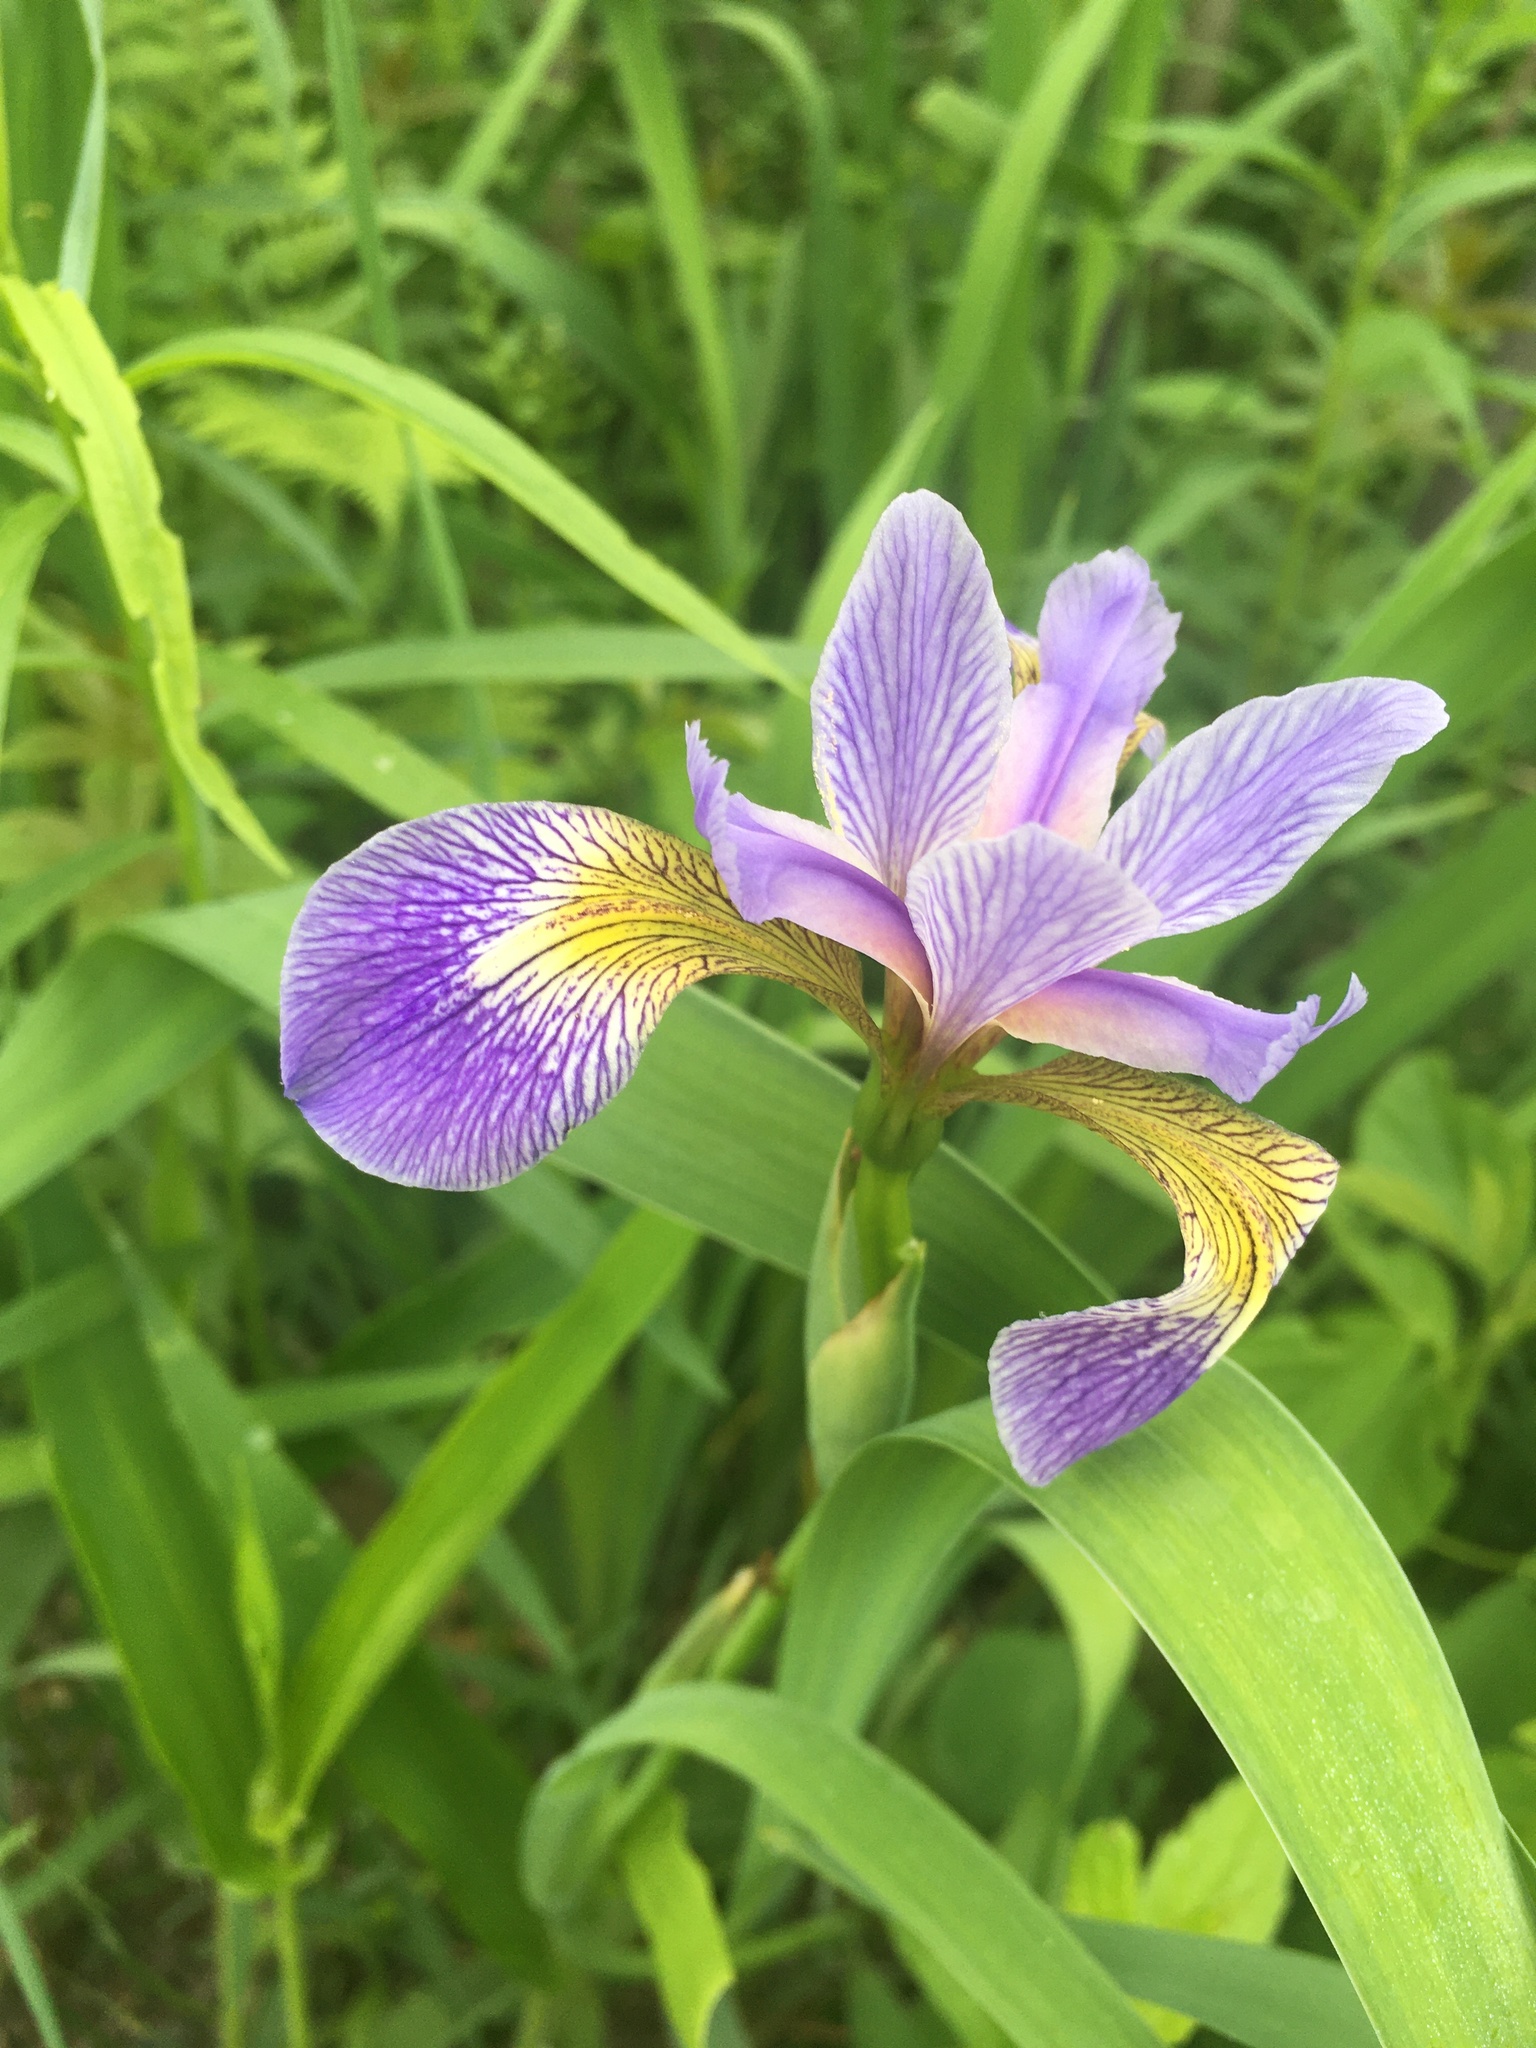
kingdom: Plantae
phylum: Tracheophyta
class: Liliopsida
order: Asparagales
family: Iridaceae
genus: Iris
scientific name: Iris versicolor
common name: Purple iris
